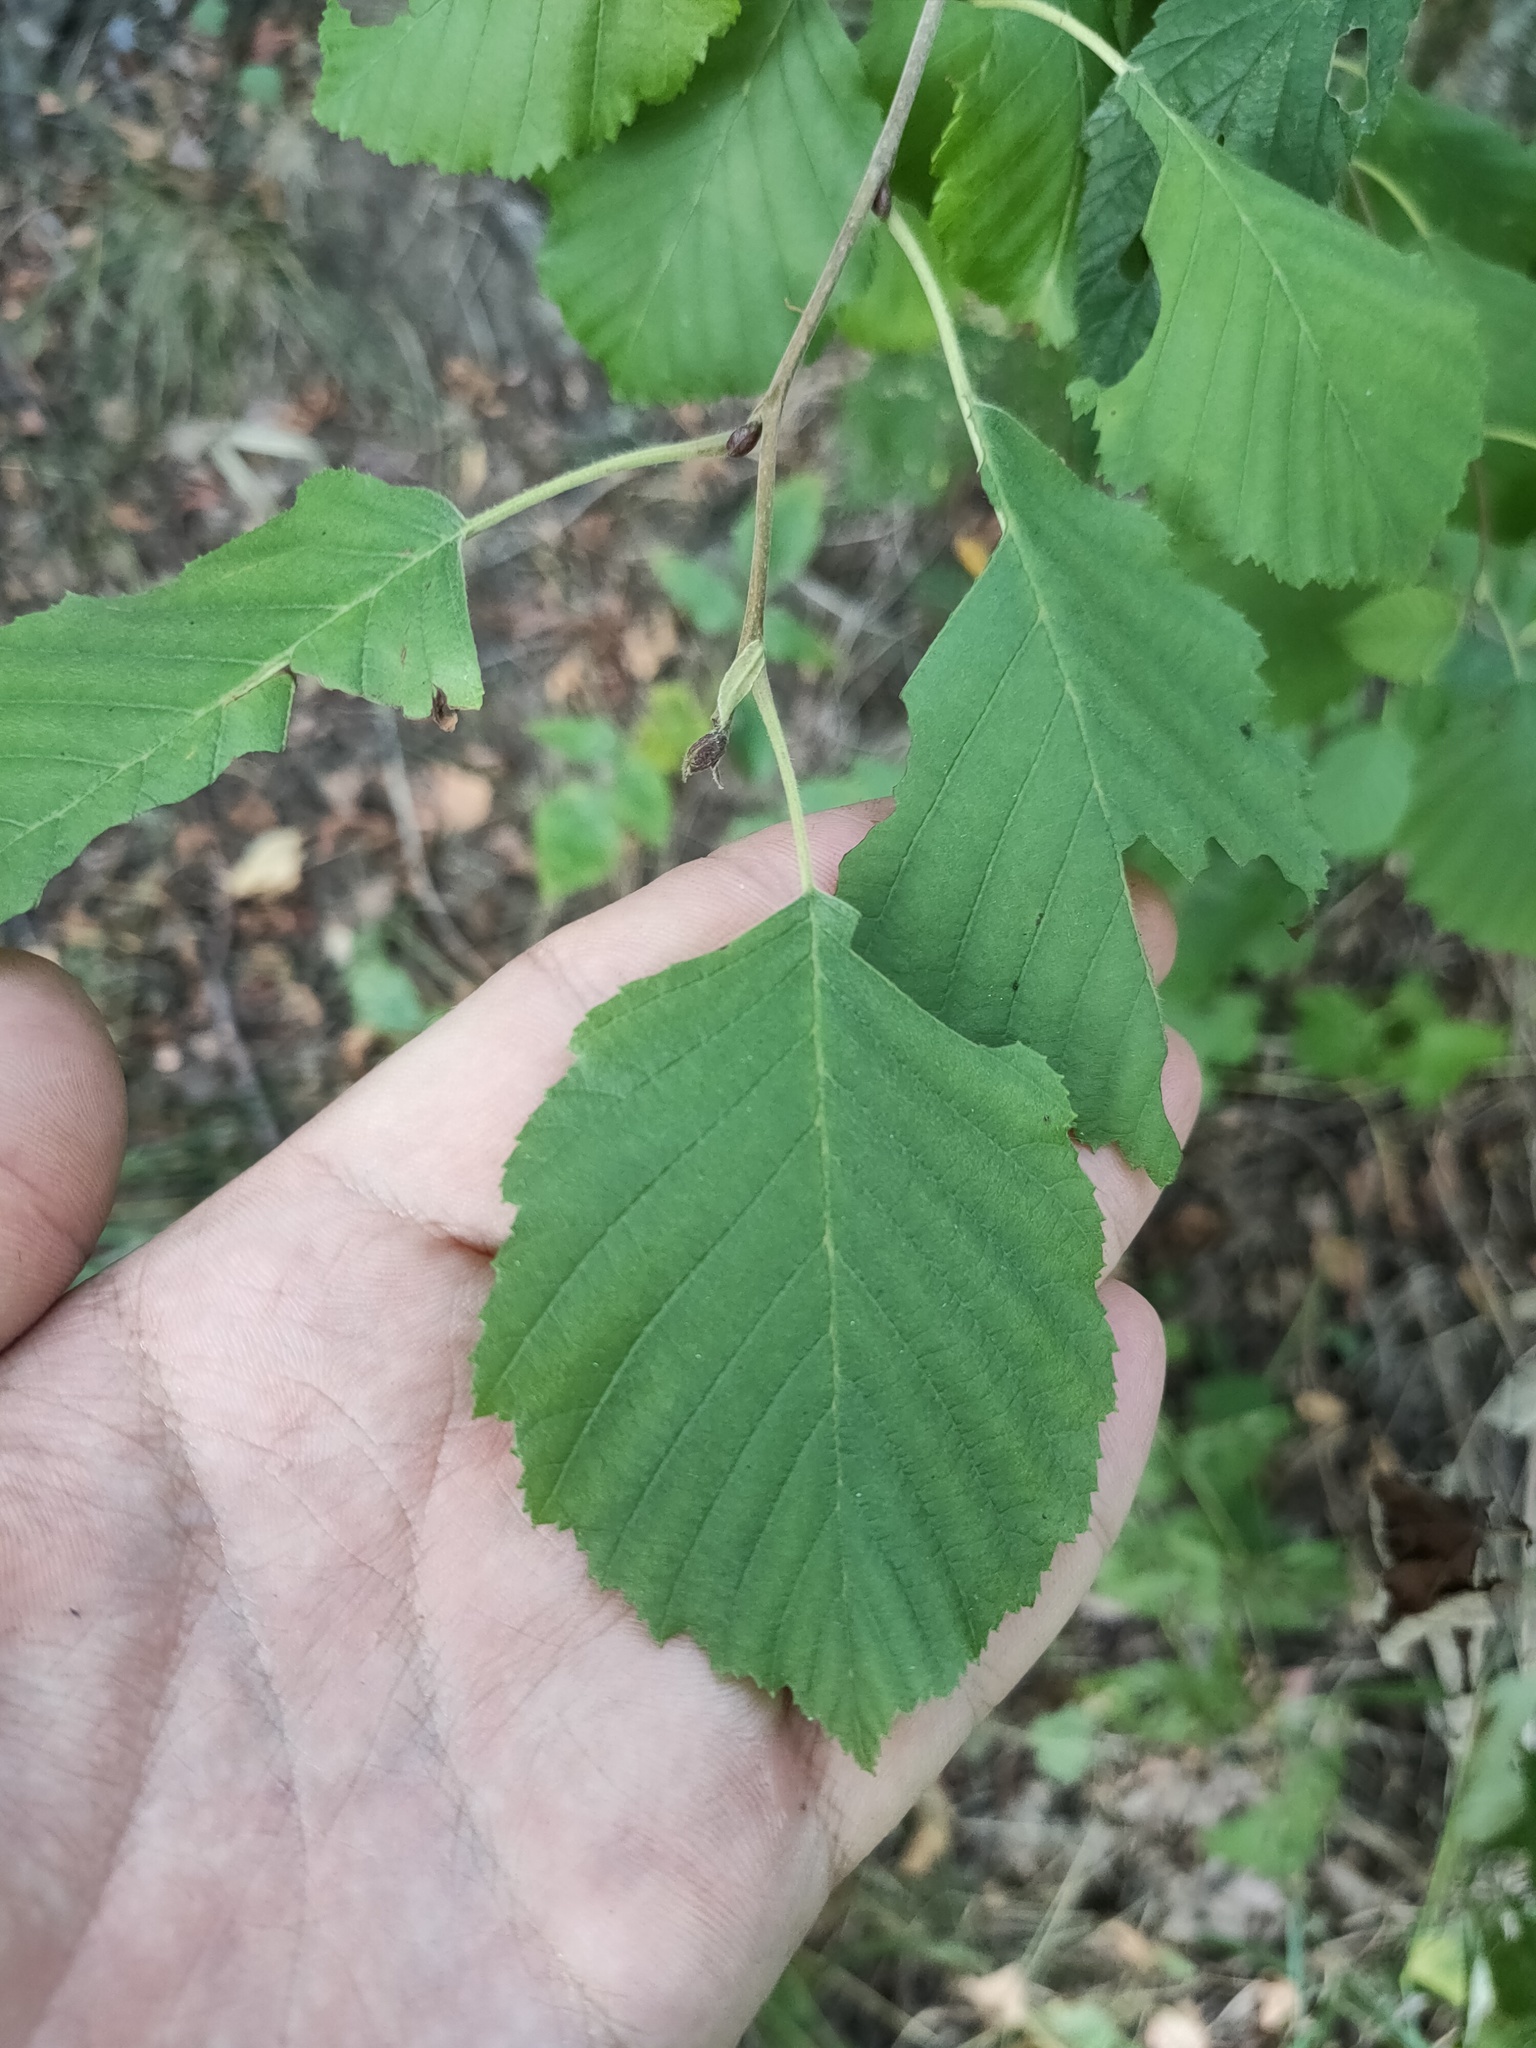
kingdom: Plantae
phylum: Tracheophyta
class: Magnoliopsida
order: Fagales
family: Betulaceae
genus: Alnus
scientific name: Alnus incana
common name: Grey alder
